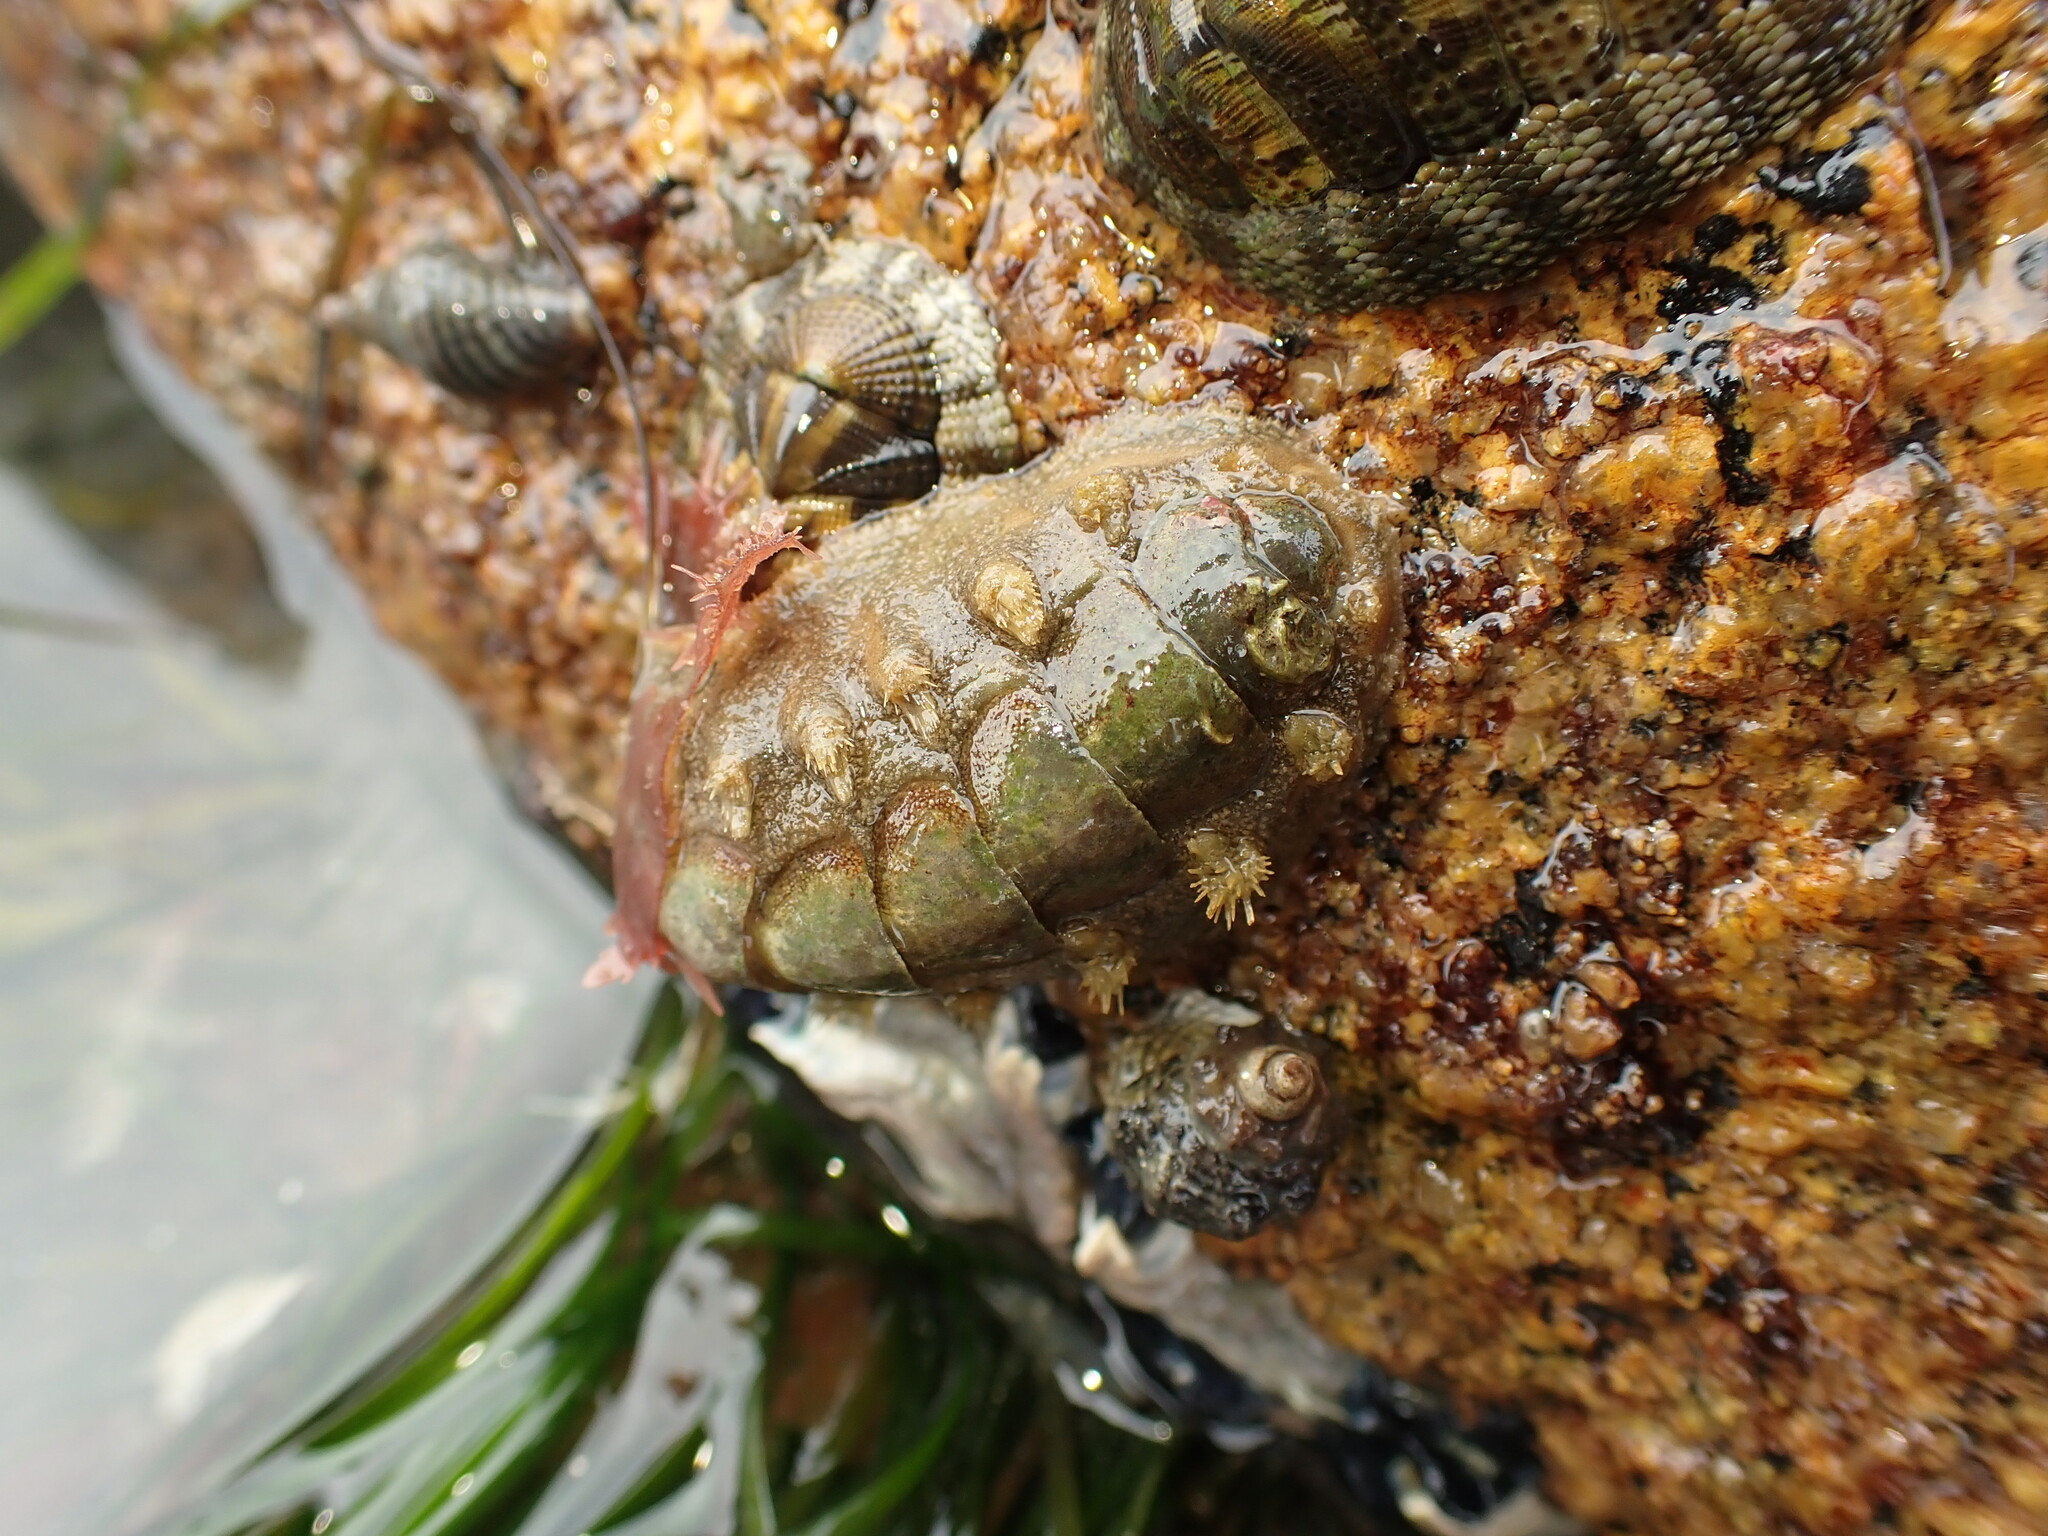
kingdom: Animalia
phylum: Mollusca
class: Polyplacophora
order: Chitonida
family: Acanthochitonidae
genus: Acanthochitona
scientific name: Acanthochitona zelandica
